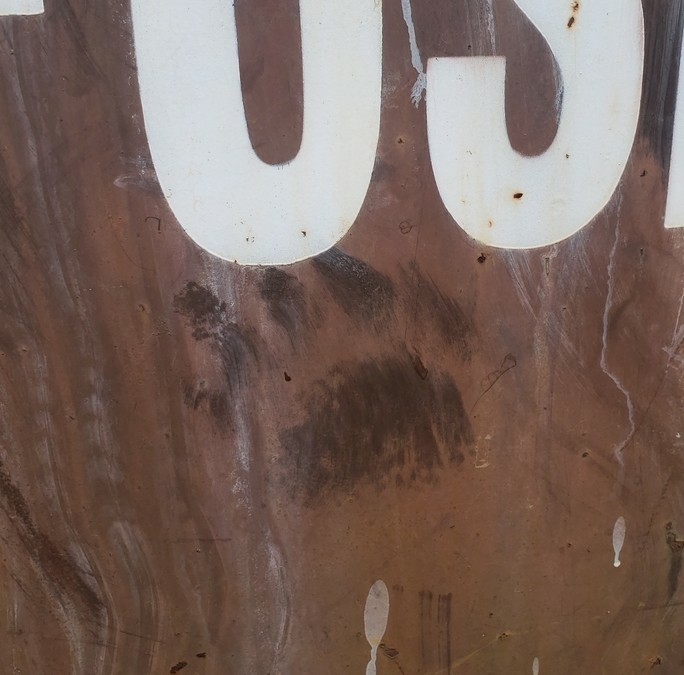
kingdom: Animalia
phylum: Chordata
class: Mammalia
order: Carnivora
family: Ursidae
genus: Ursus
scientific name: Ursus americanus
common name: American black bear
